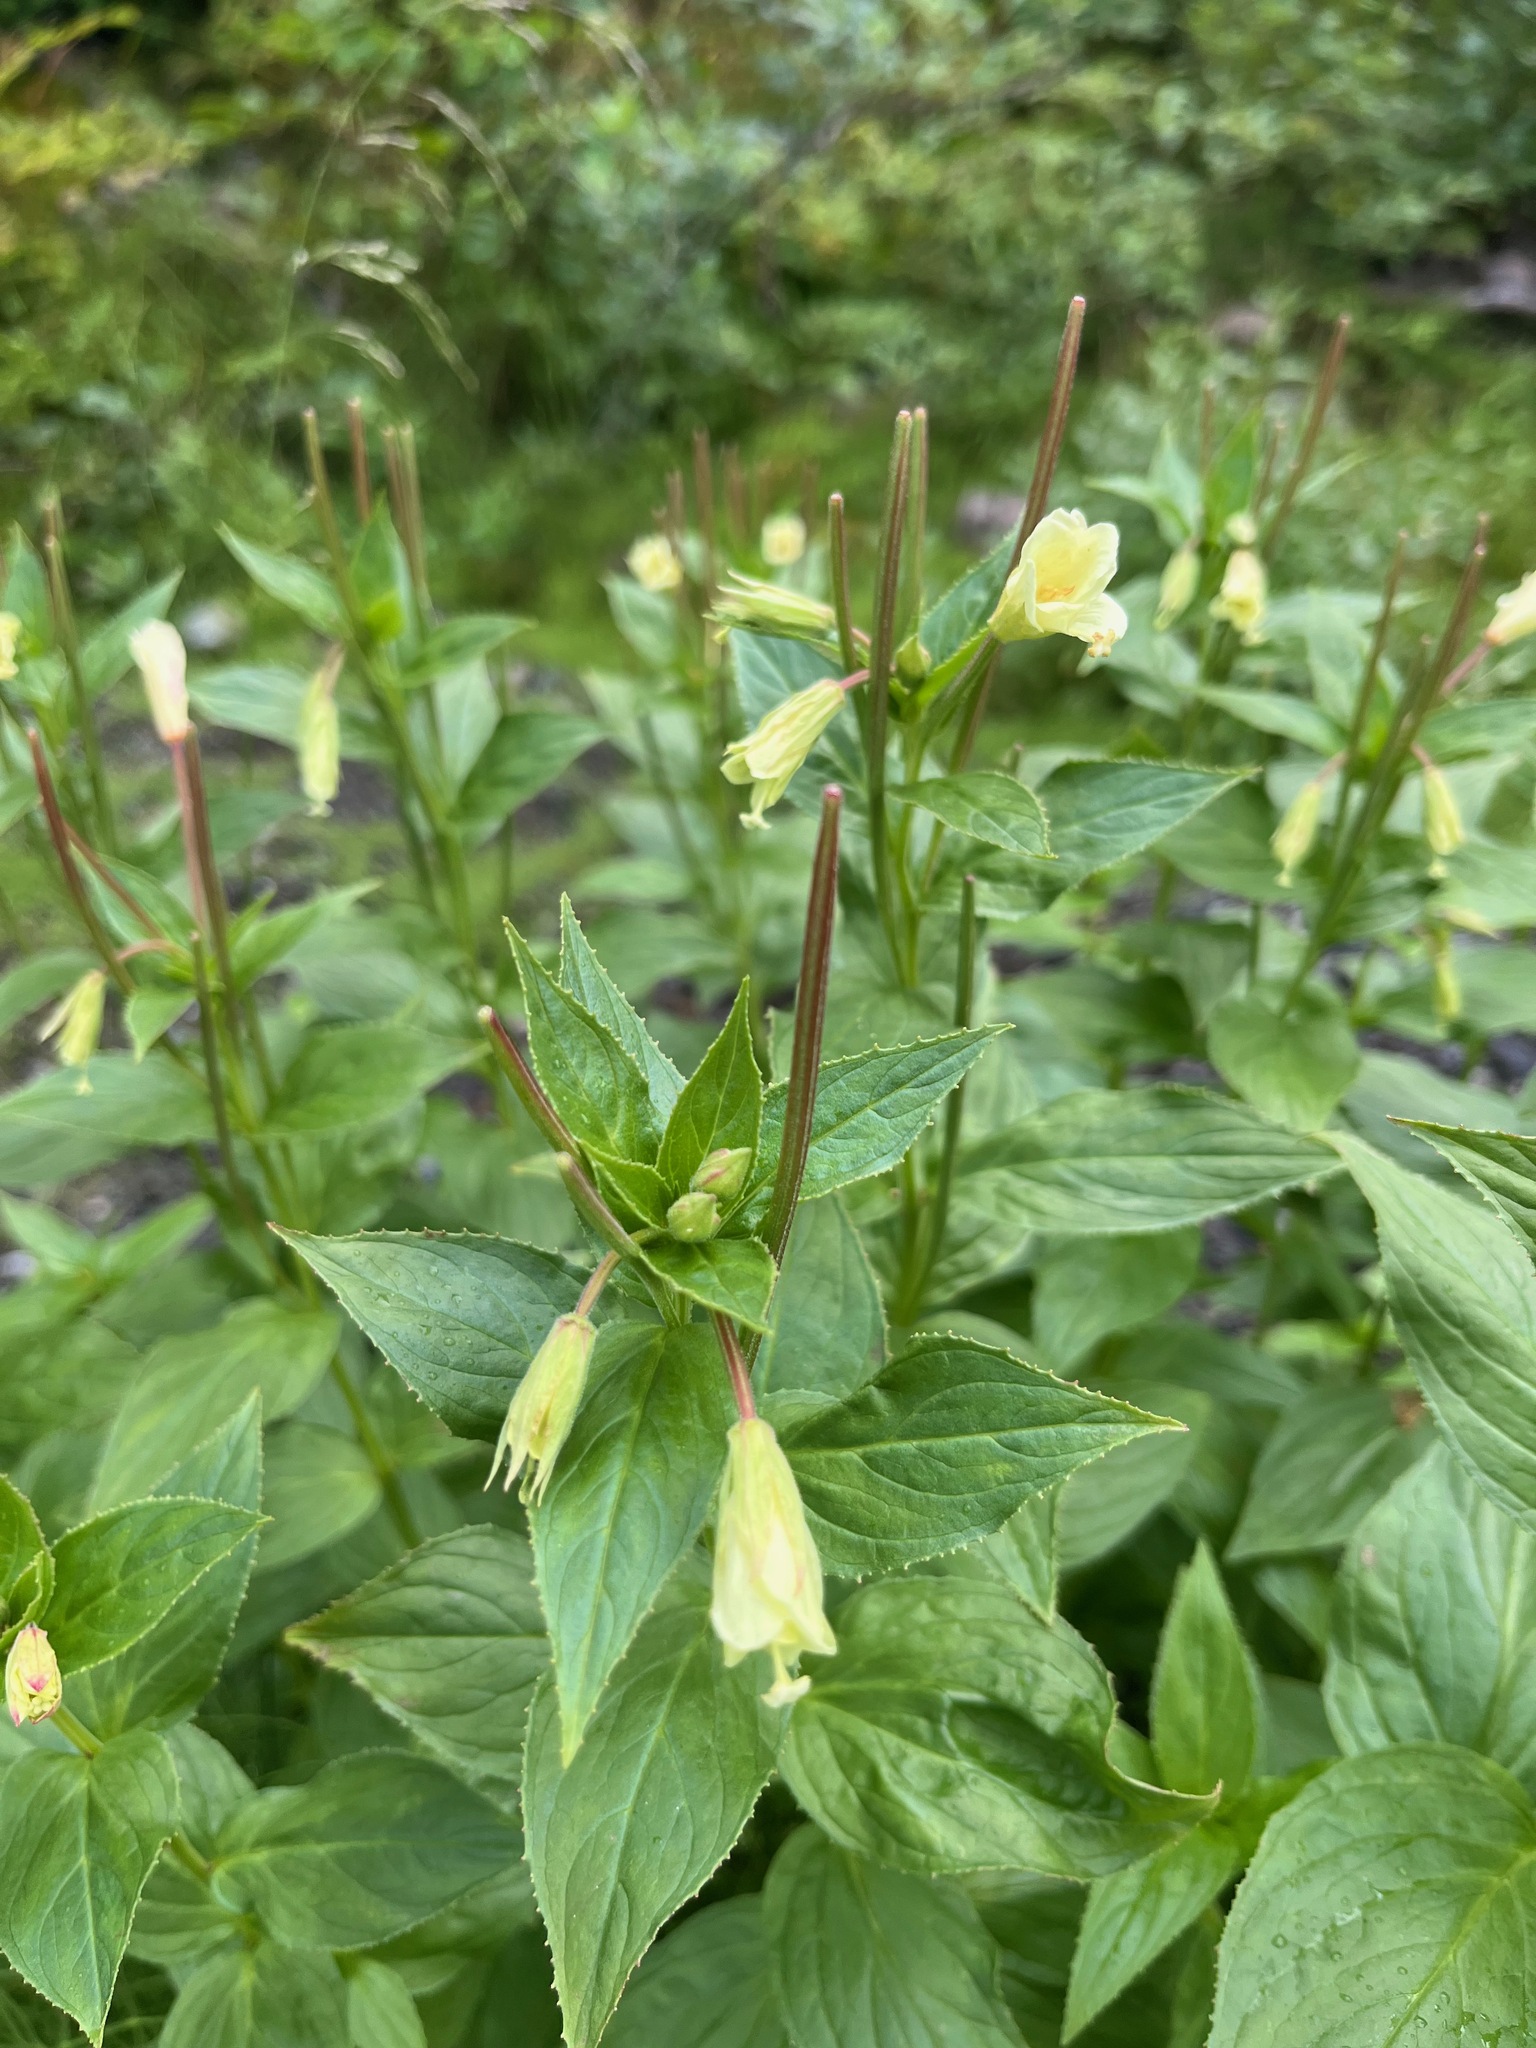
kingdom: Plantae
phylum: Tracheophyta
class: Magnoliopsida
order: Myrtales
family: Onagraceae
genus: Epilobium
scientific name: Epilobium luteum
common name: Yellow willowherb
